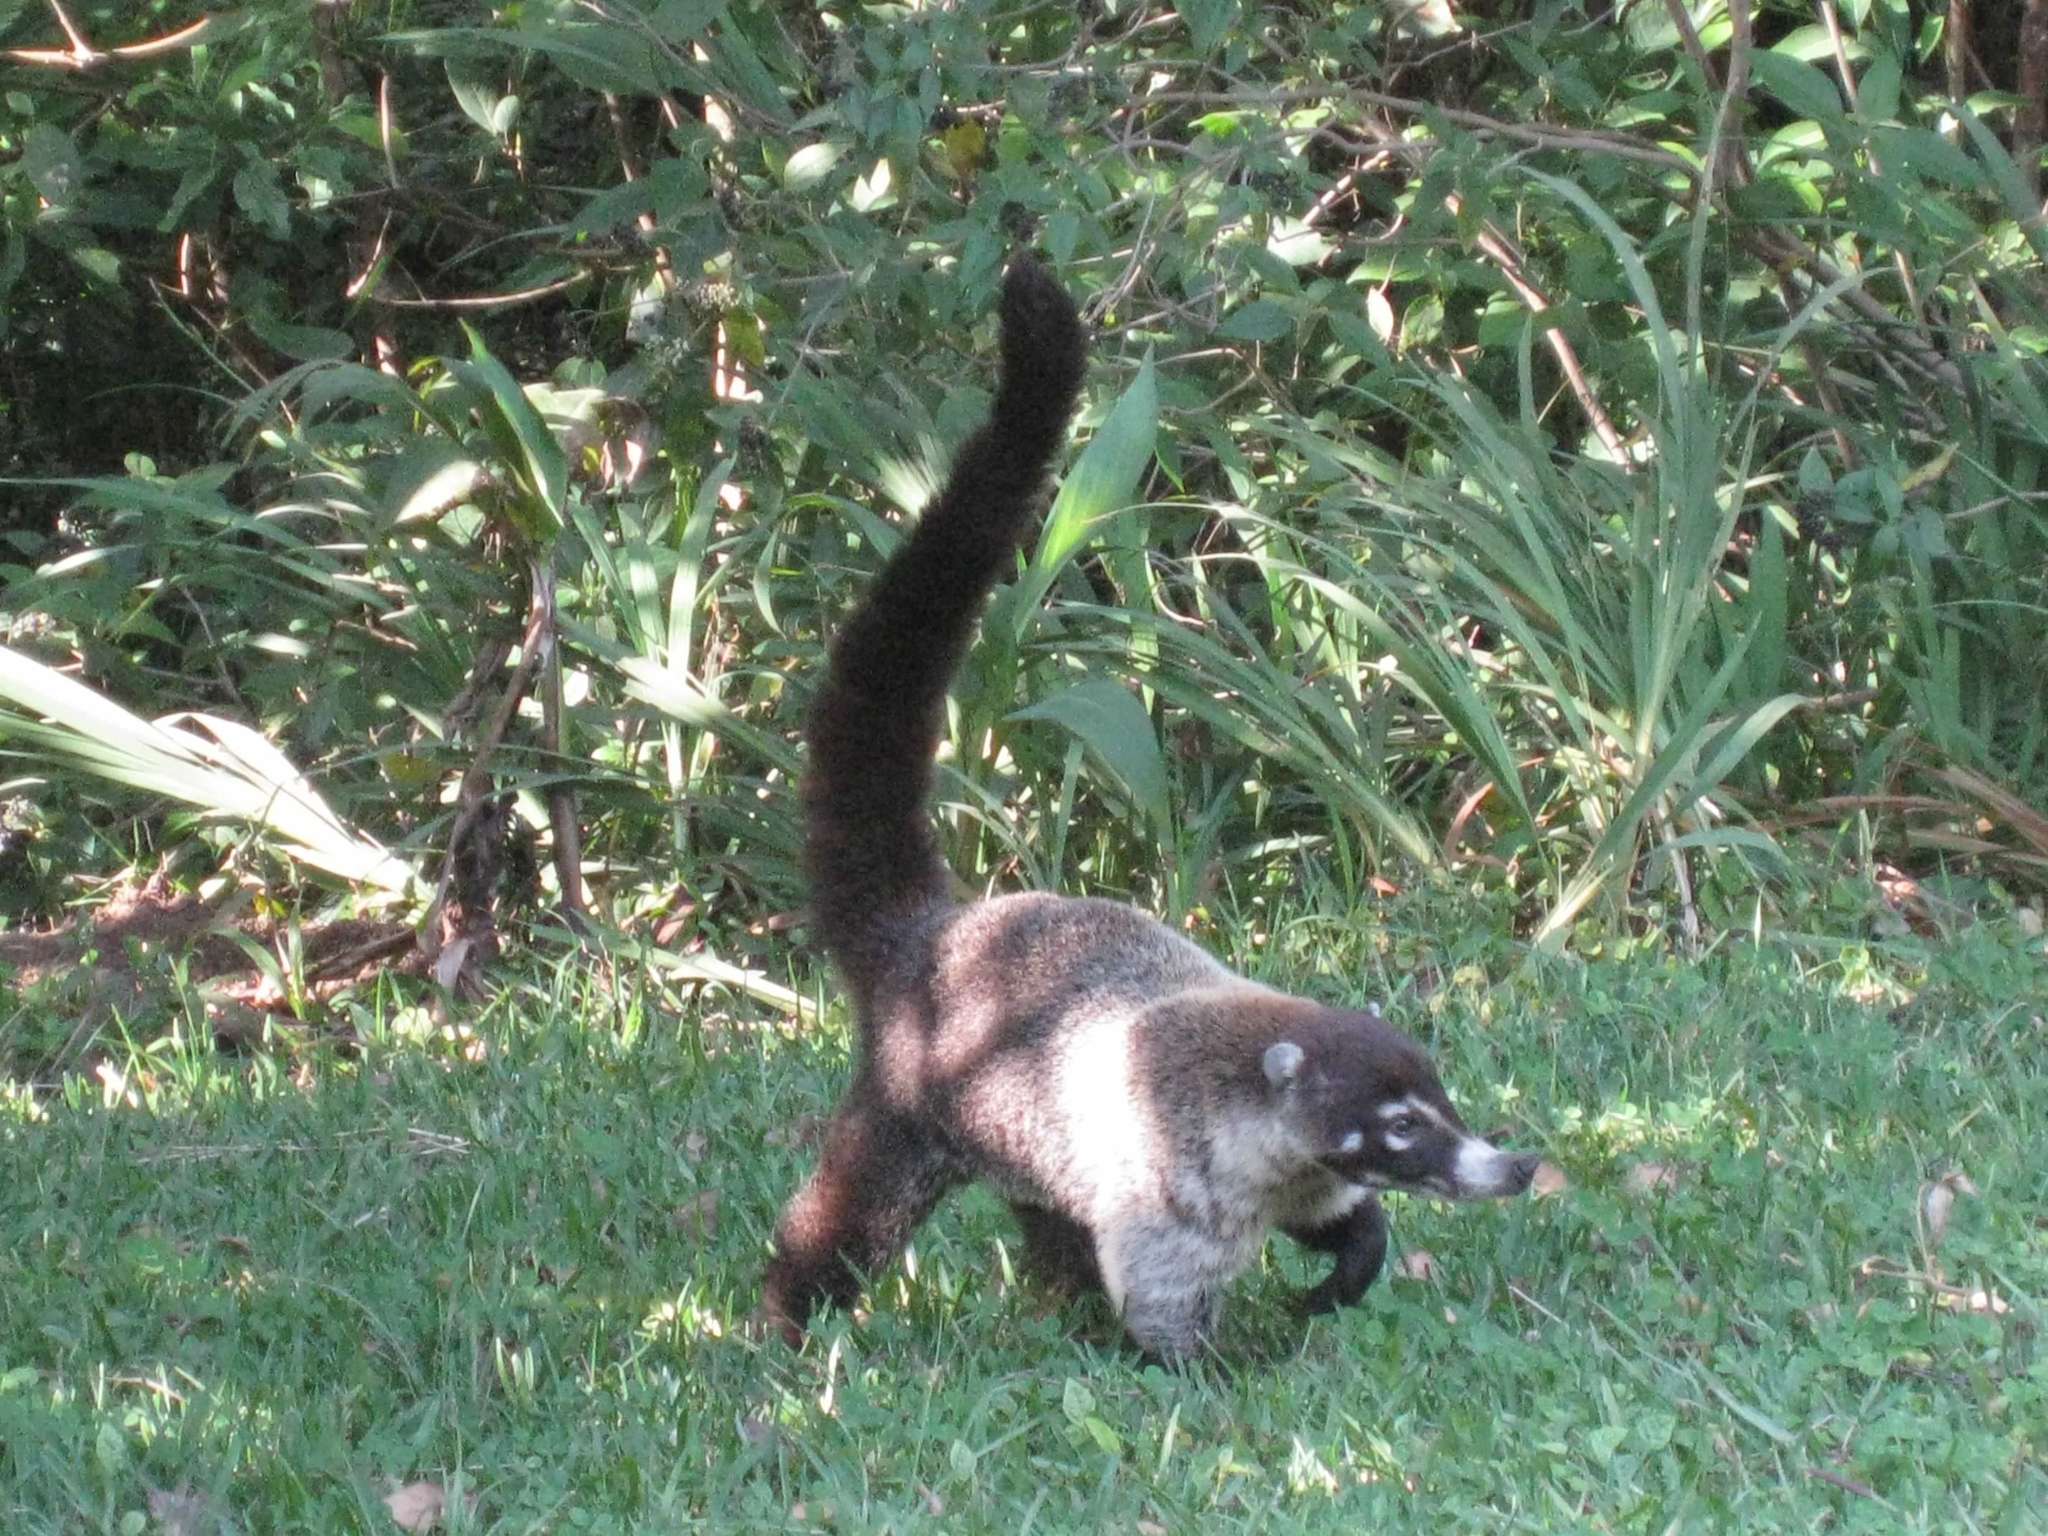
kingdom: Animalia
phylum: Chordata
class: Mammalia
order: Carnivora
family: Procyonidae
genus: Nasua
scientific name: Nasua narica
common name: White-nosed coati
